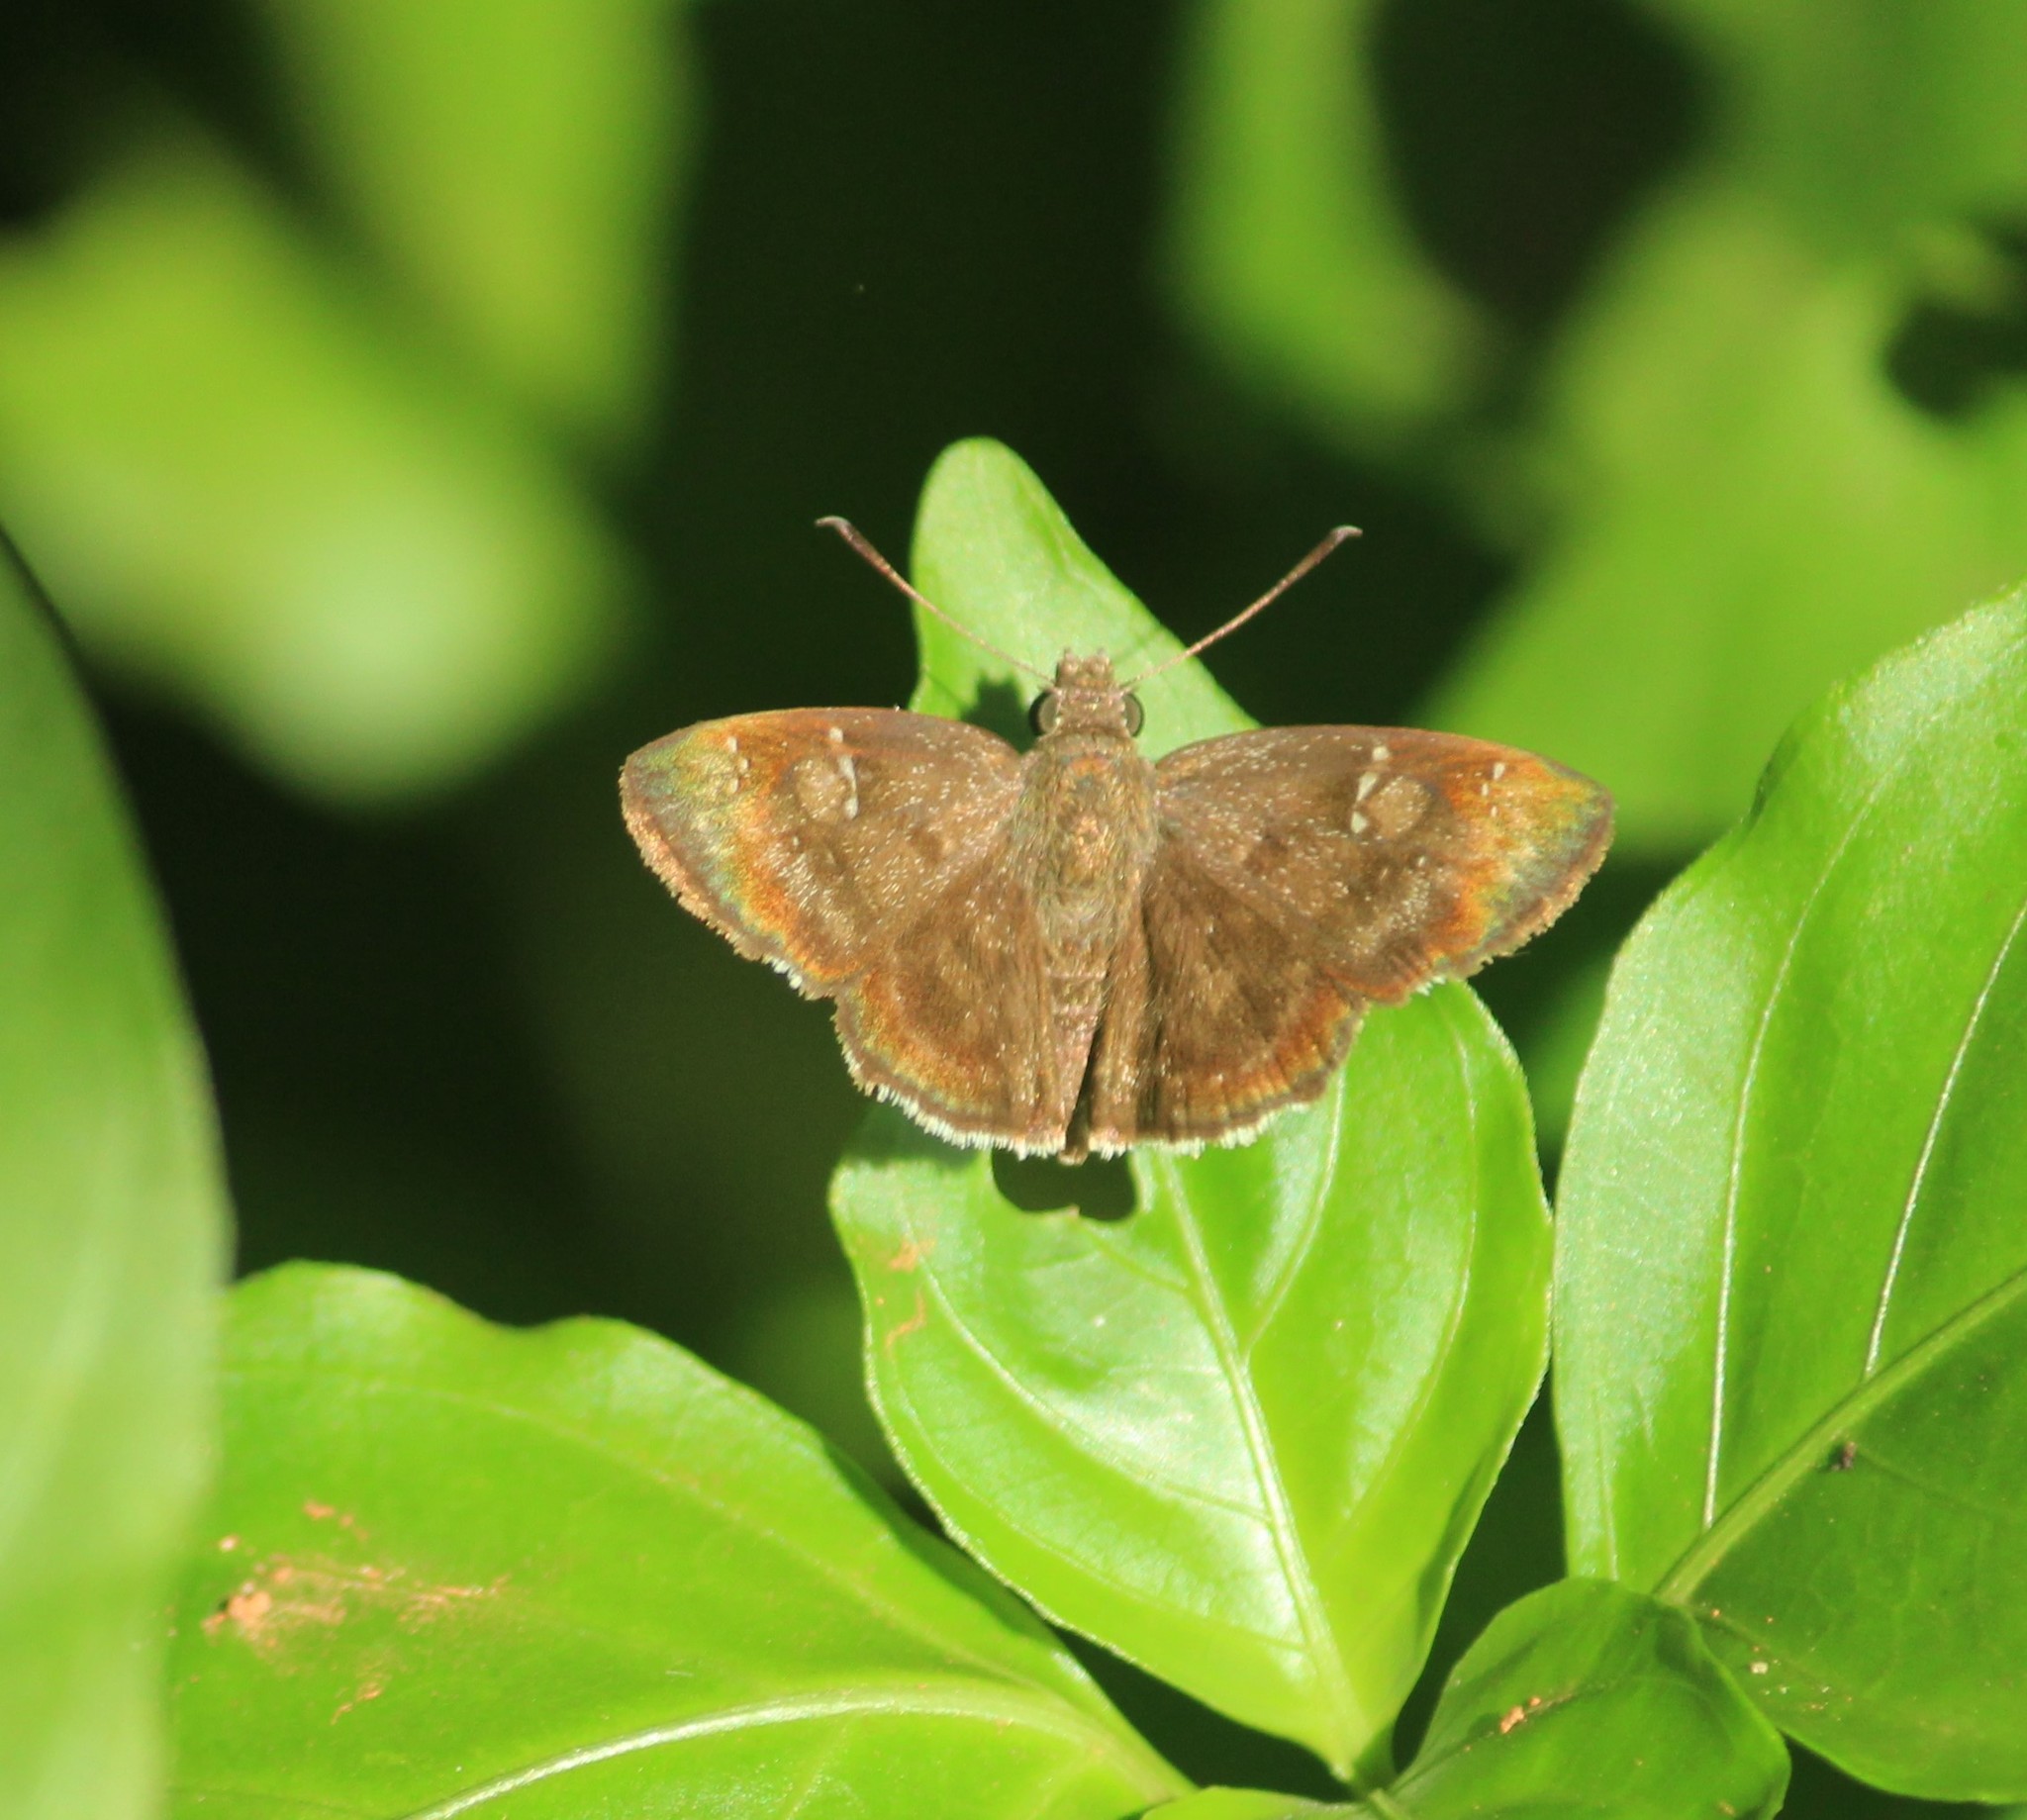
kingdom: Animalia
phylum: Arthropoda
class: Insecta
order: Lepidoptera
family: Hesperiidae
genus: Sarangesa
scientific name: Sarangesa dasahara
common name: Common small flat
